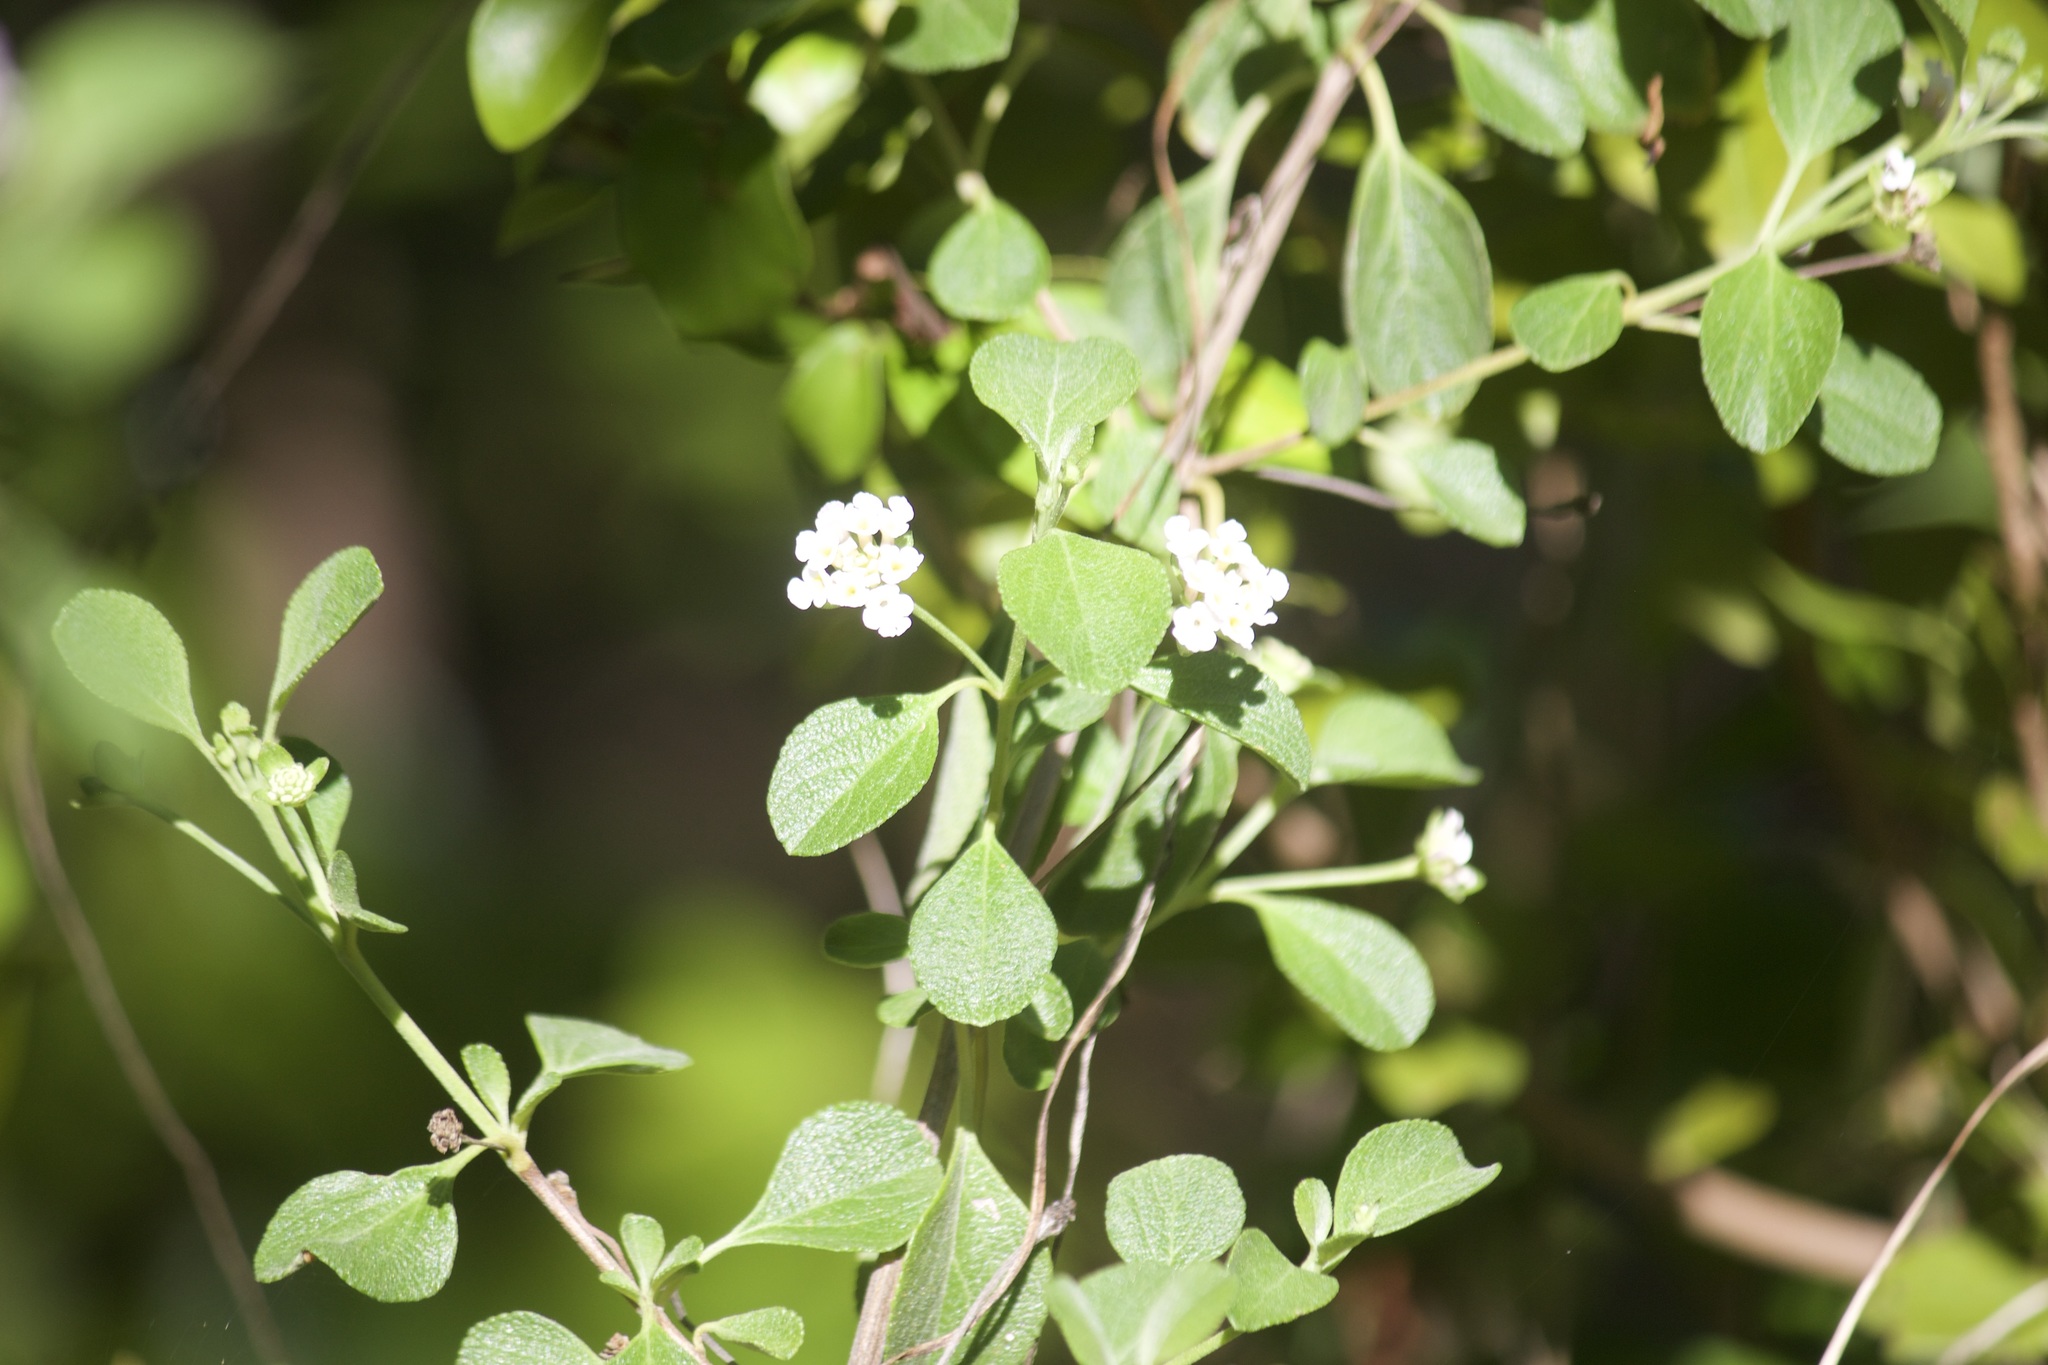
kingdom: Plantae
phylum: Tracheophyta
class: Magnoliopsida
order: Lamiales
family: Verbenaceae
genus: Lantana
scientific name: Lantana involucrata
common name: Black sage
